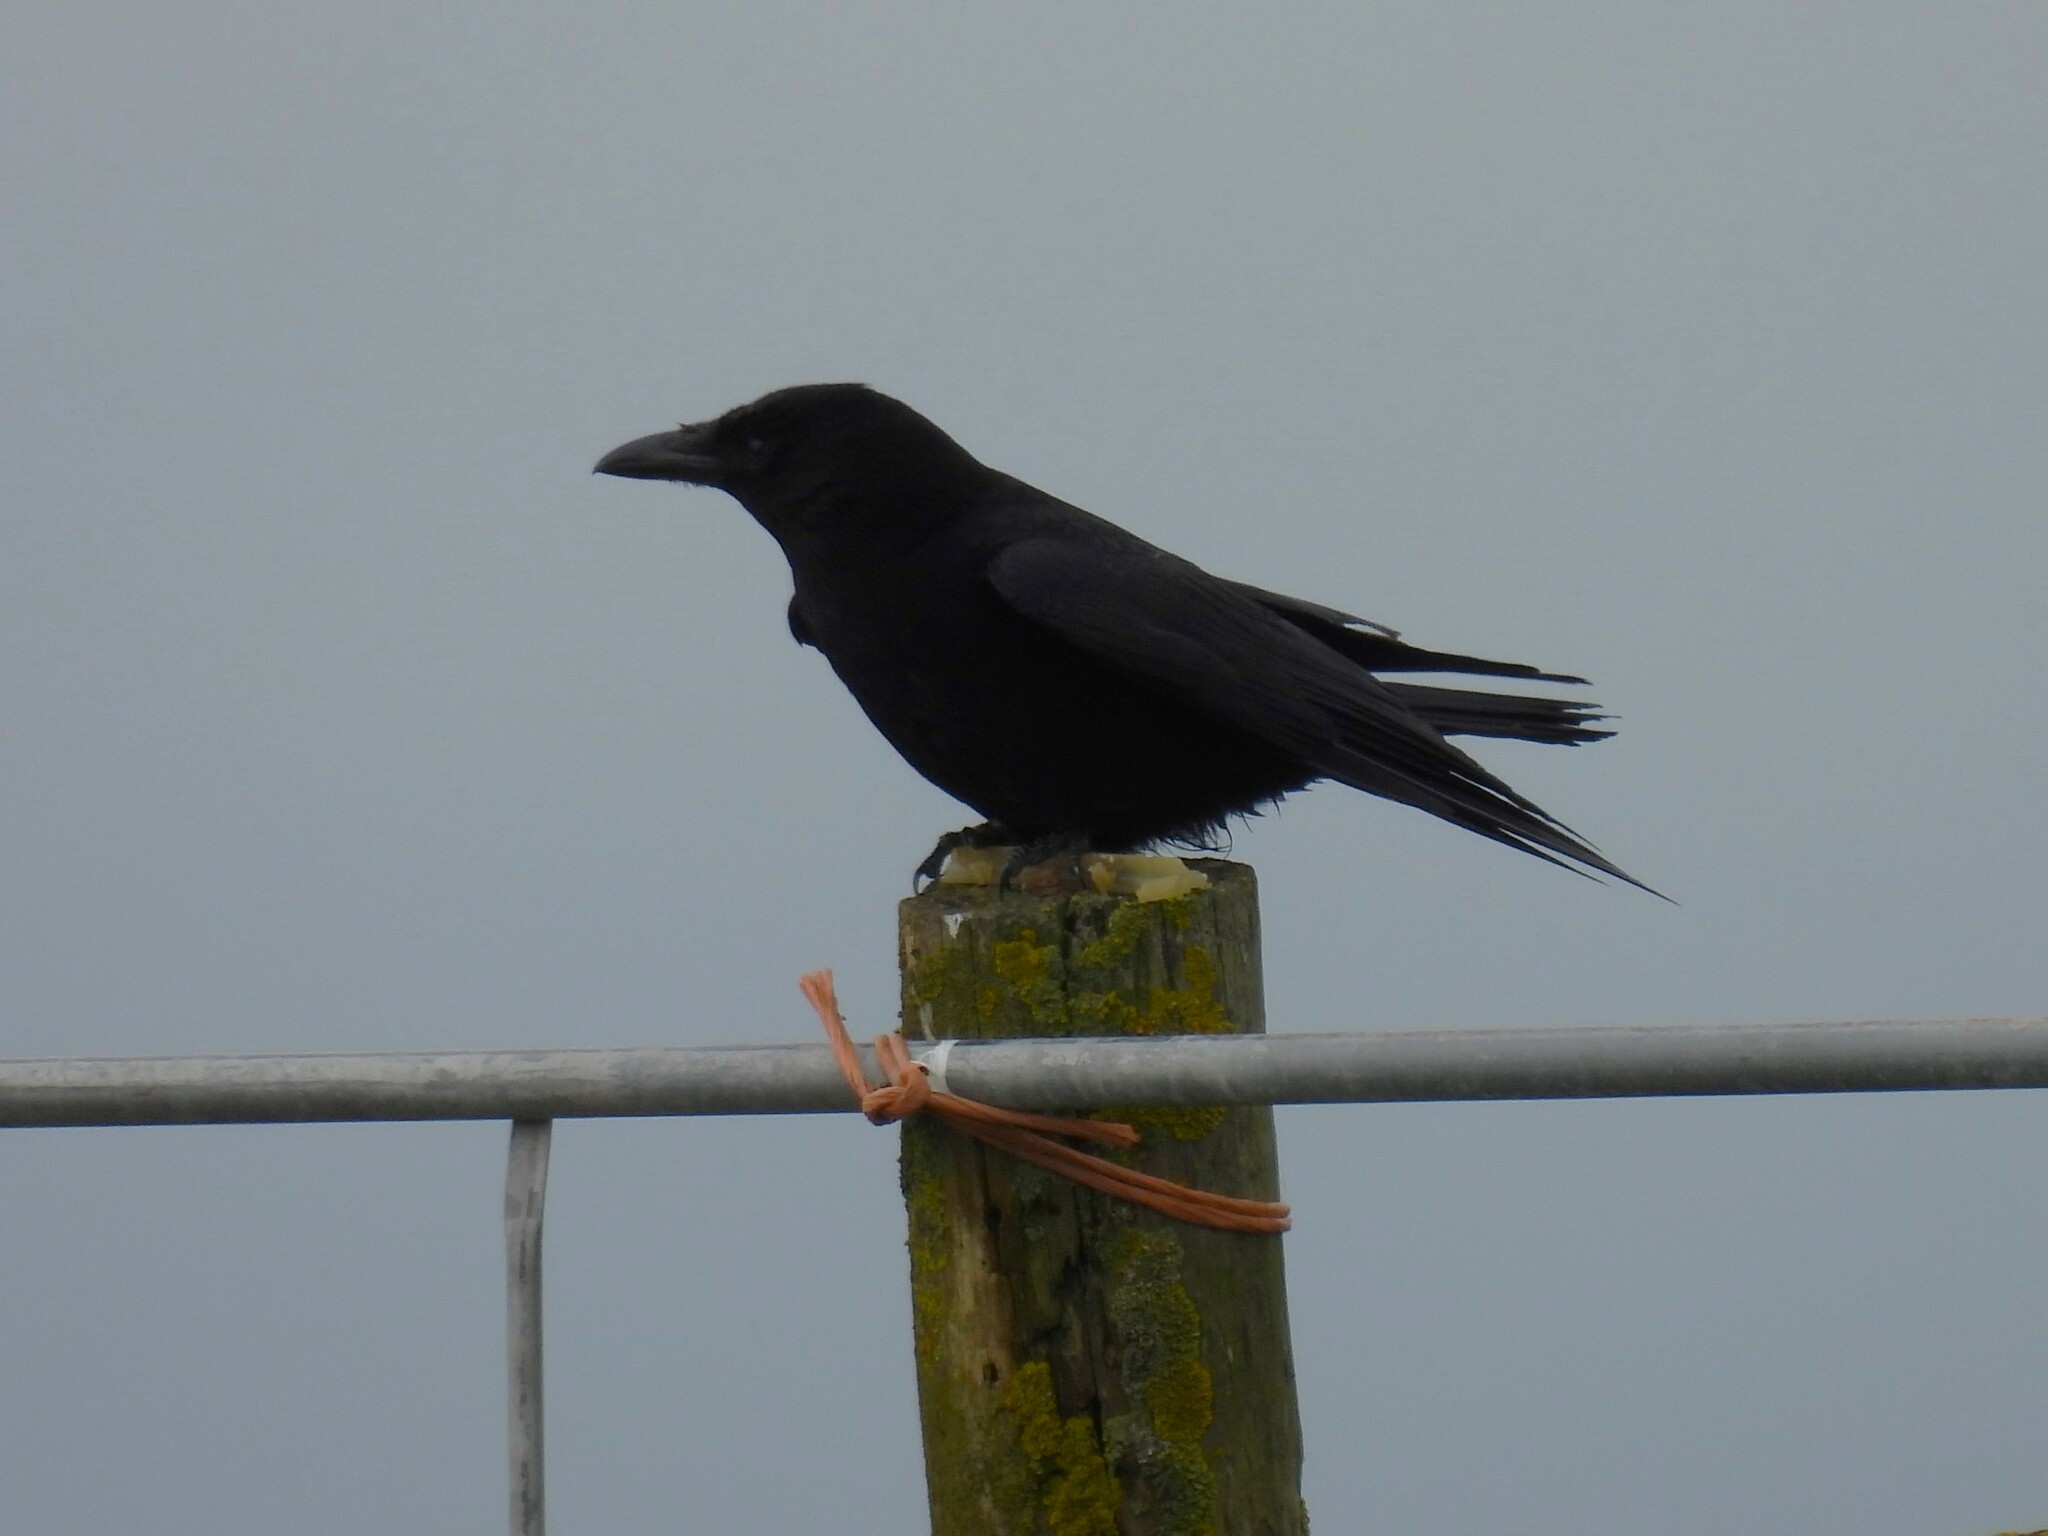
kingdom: Animalia
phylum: Chordata
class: Aves
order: Passeriformes
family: Corvidae
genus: Corvus
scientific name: Corvus corone
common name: Carrion crow
